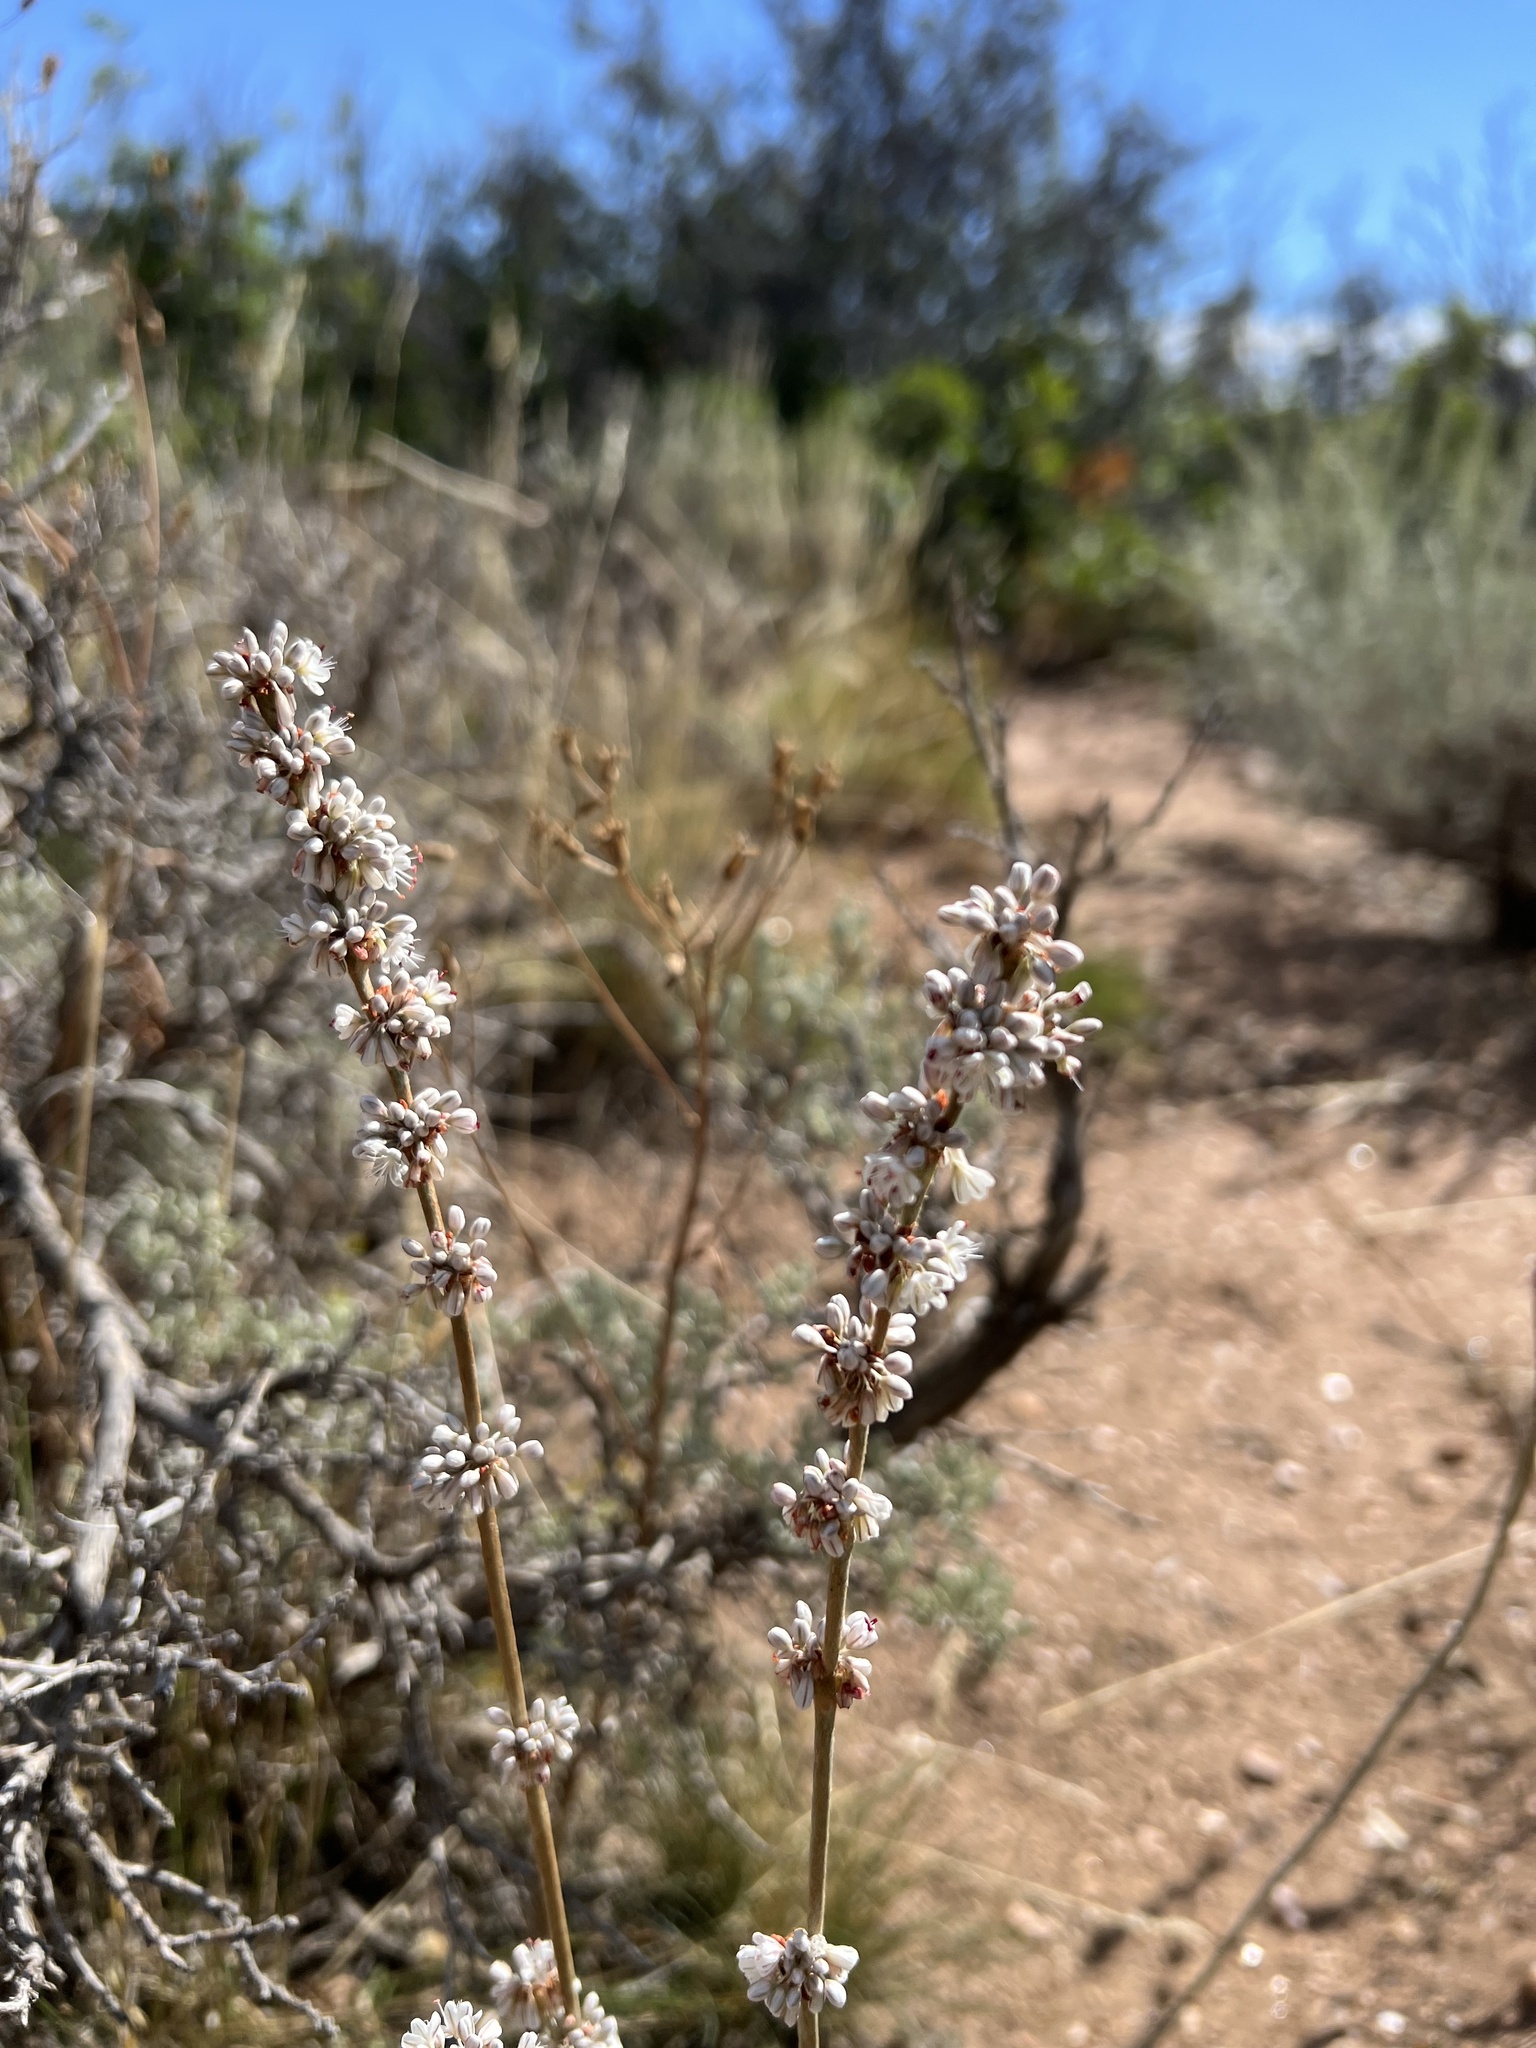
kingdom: Plantae
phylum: Tracheophyta
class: Magnoliopsida
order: Caryophyllales
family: Polygonaceae
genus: Eriogonum
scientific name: Eriogonum racemosum
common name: Redroot wild buckwheat
